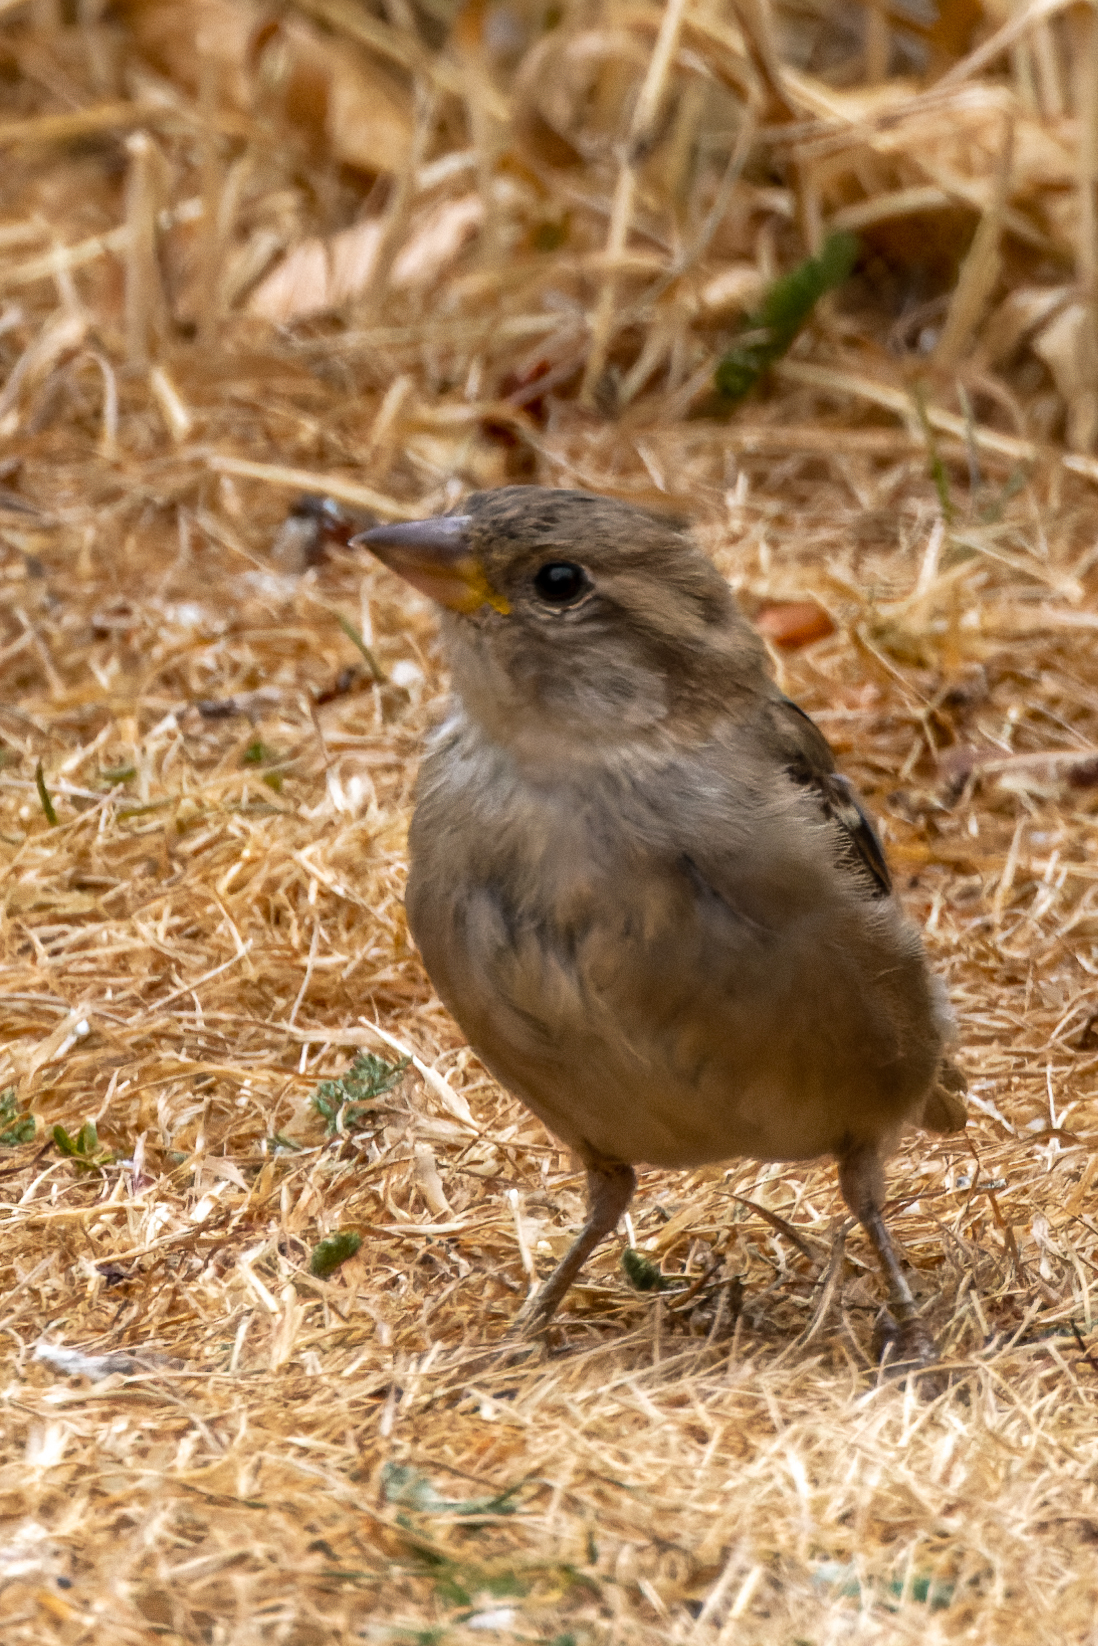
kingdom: Animalia
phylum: Chordata
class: Aves
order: Passeriformes
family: Passeridae
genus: Passer
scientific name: Passer domesticus
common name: House sparrow
